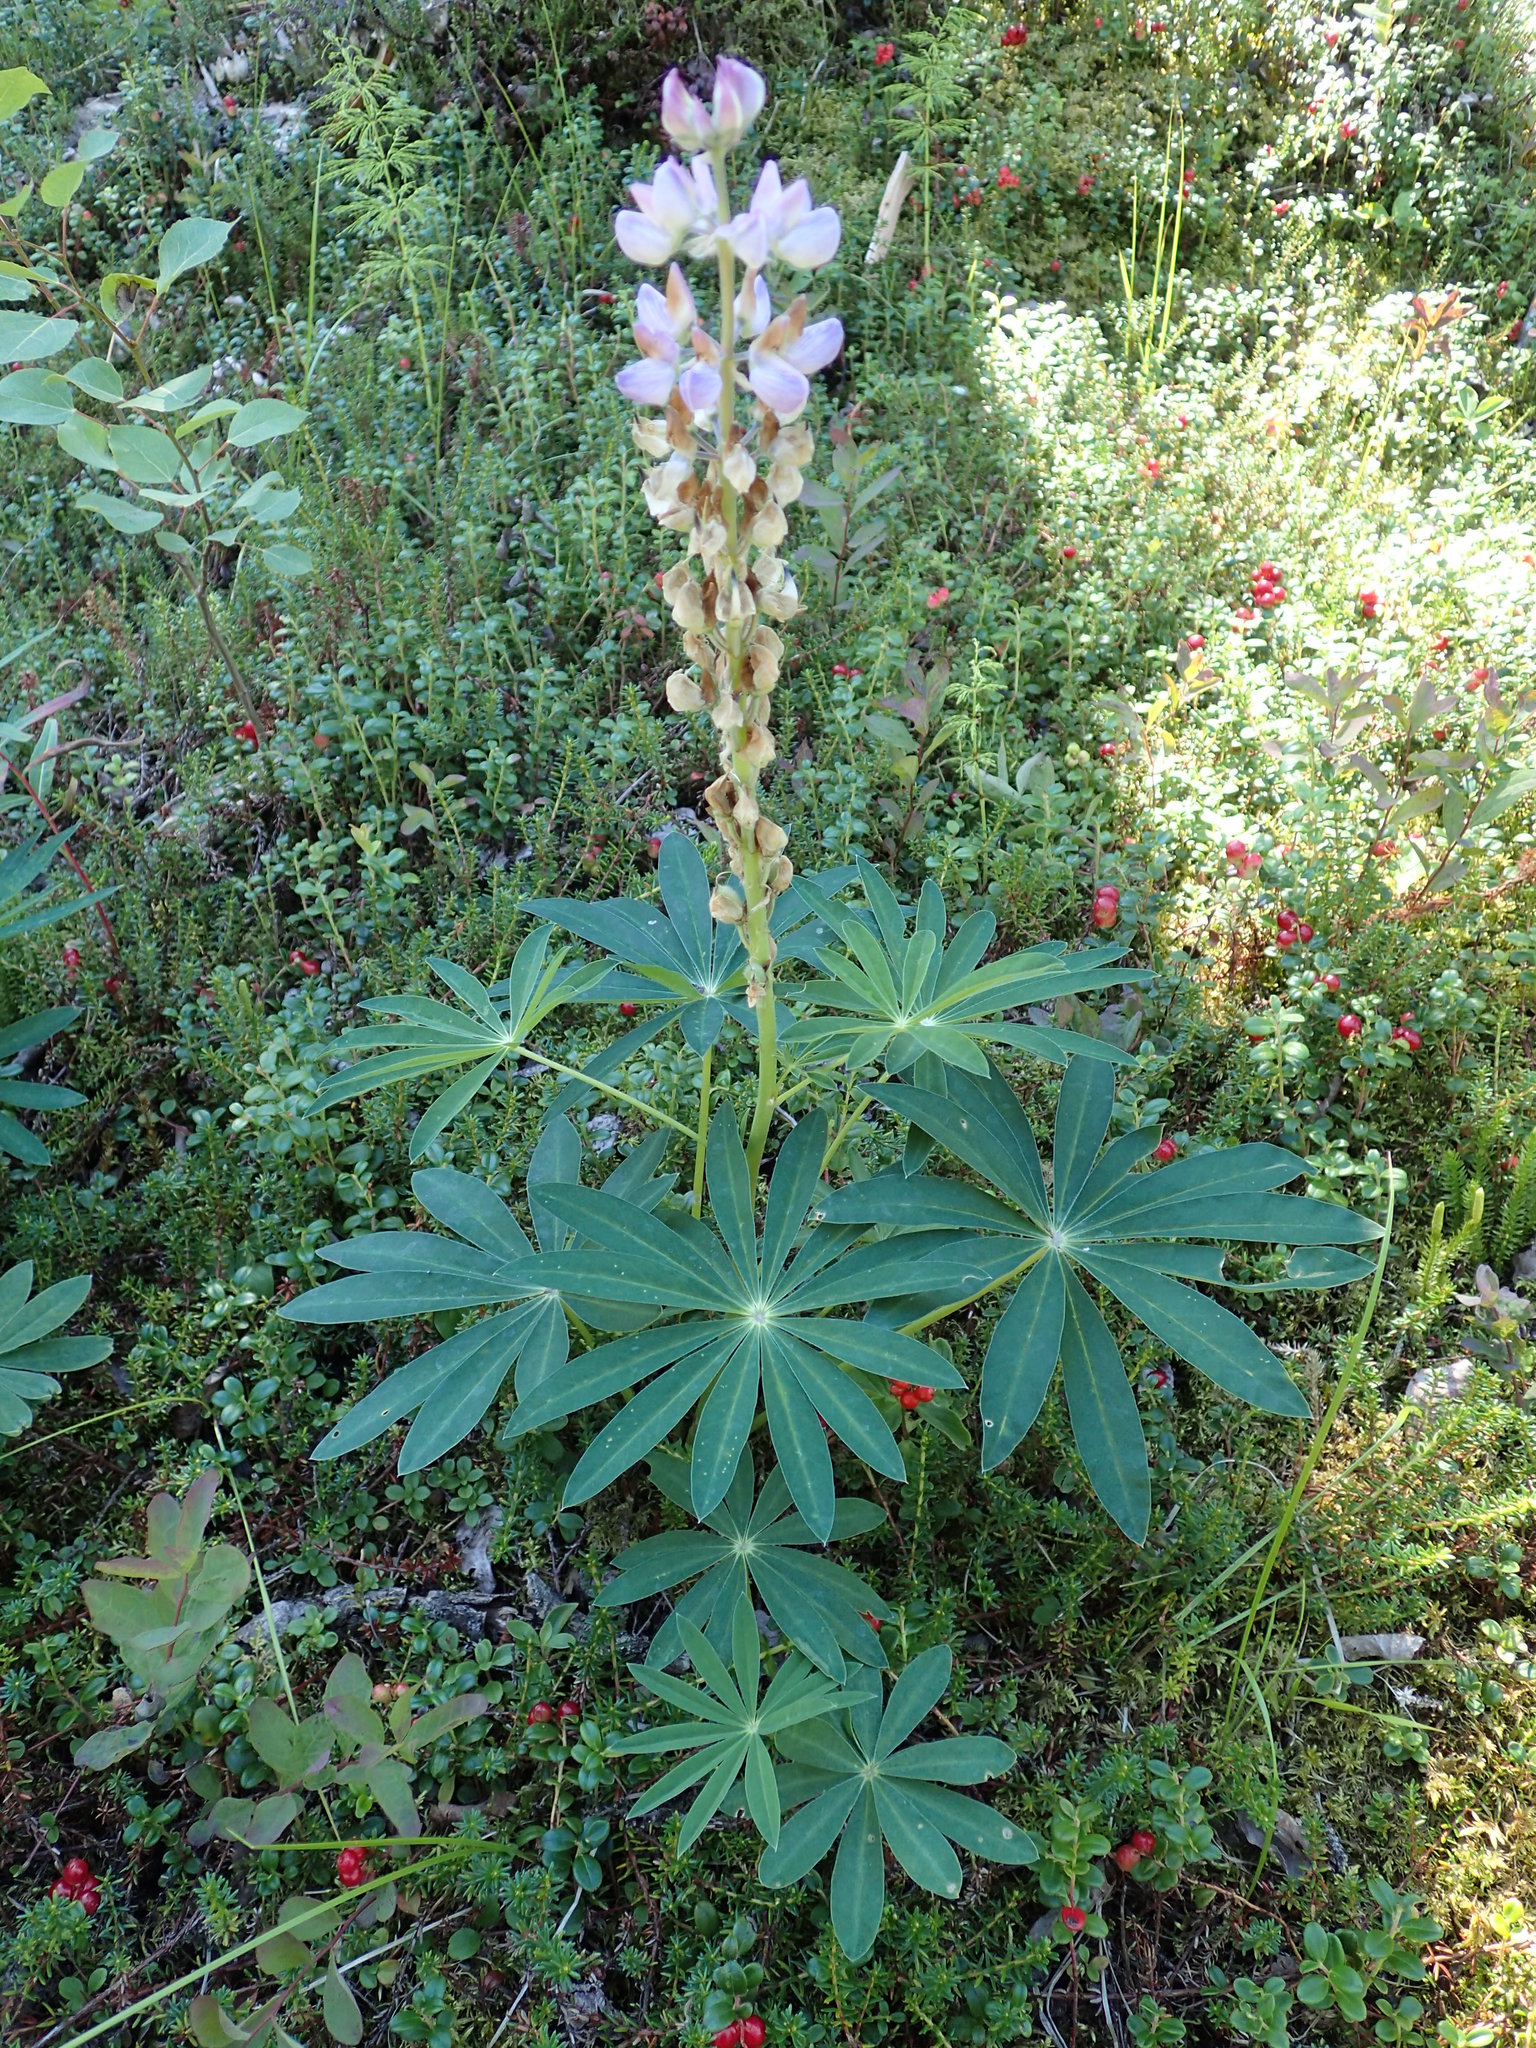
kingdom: Plantae
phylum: Tracheophyta
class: Magnoliopsida
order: Fabales
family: Fabaceae
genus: Lupinus
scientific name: Lupinus polyphyllus
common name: Garden lupin
